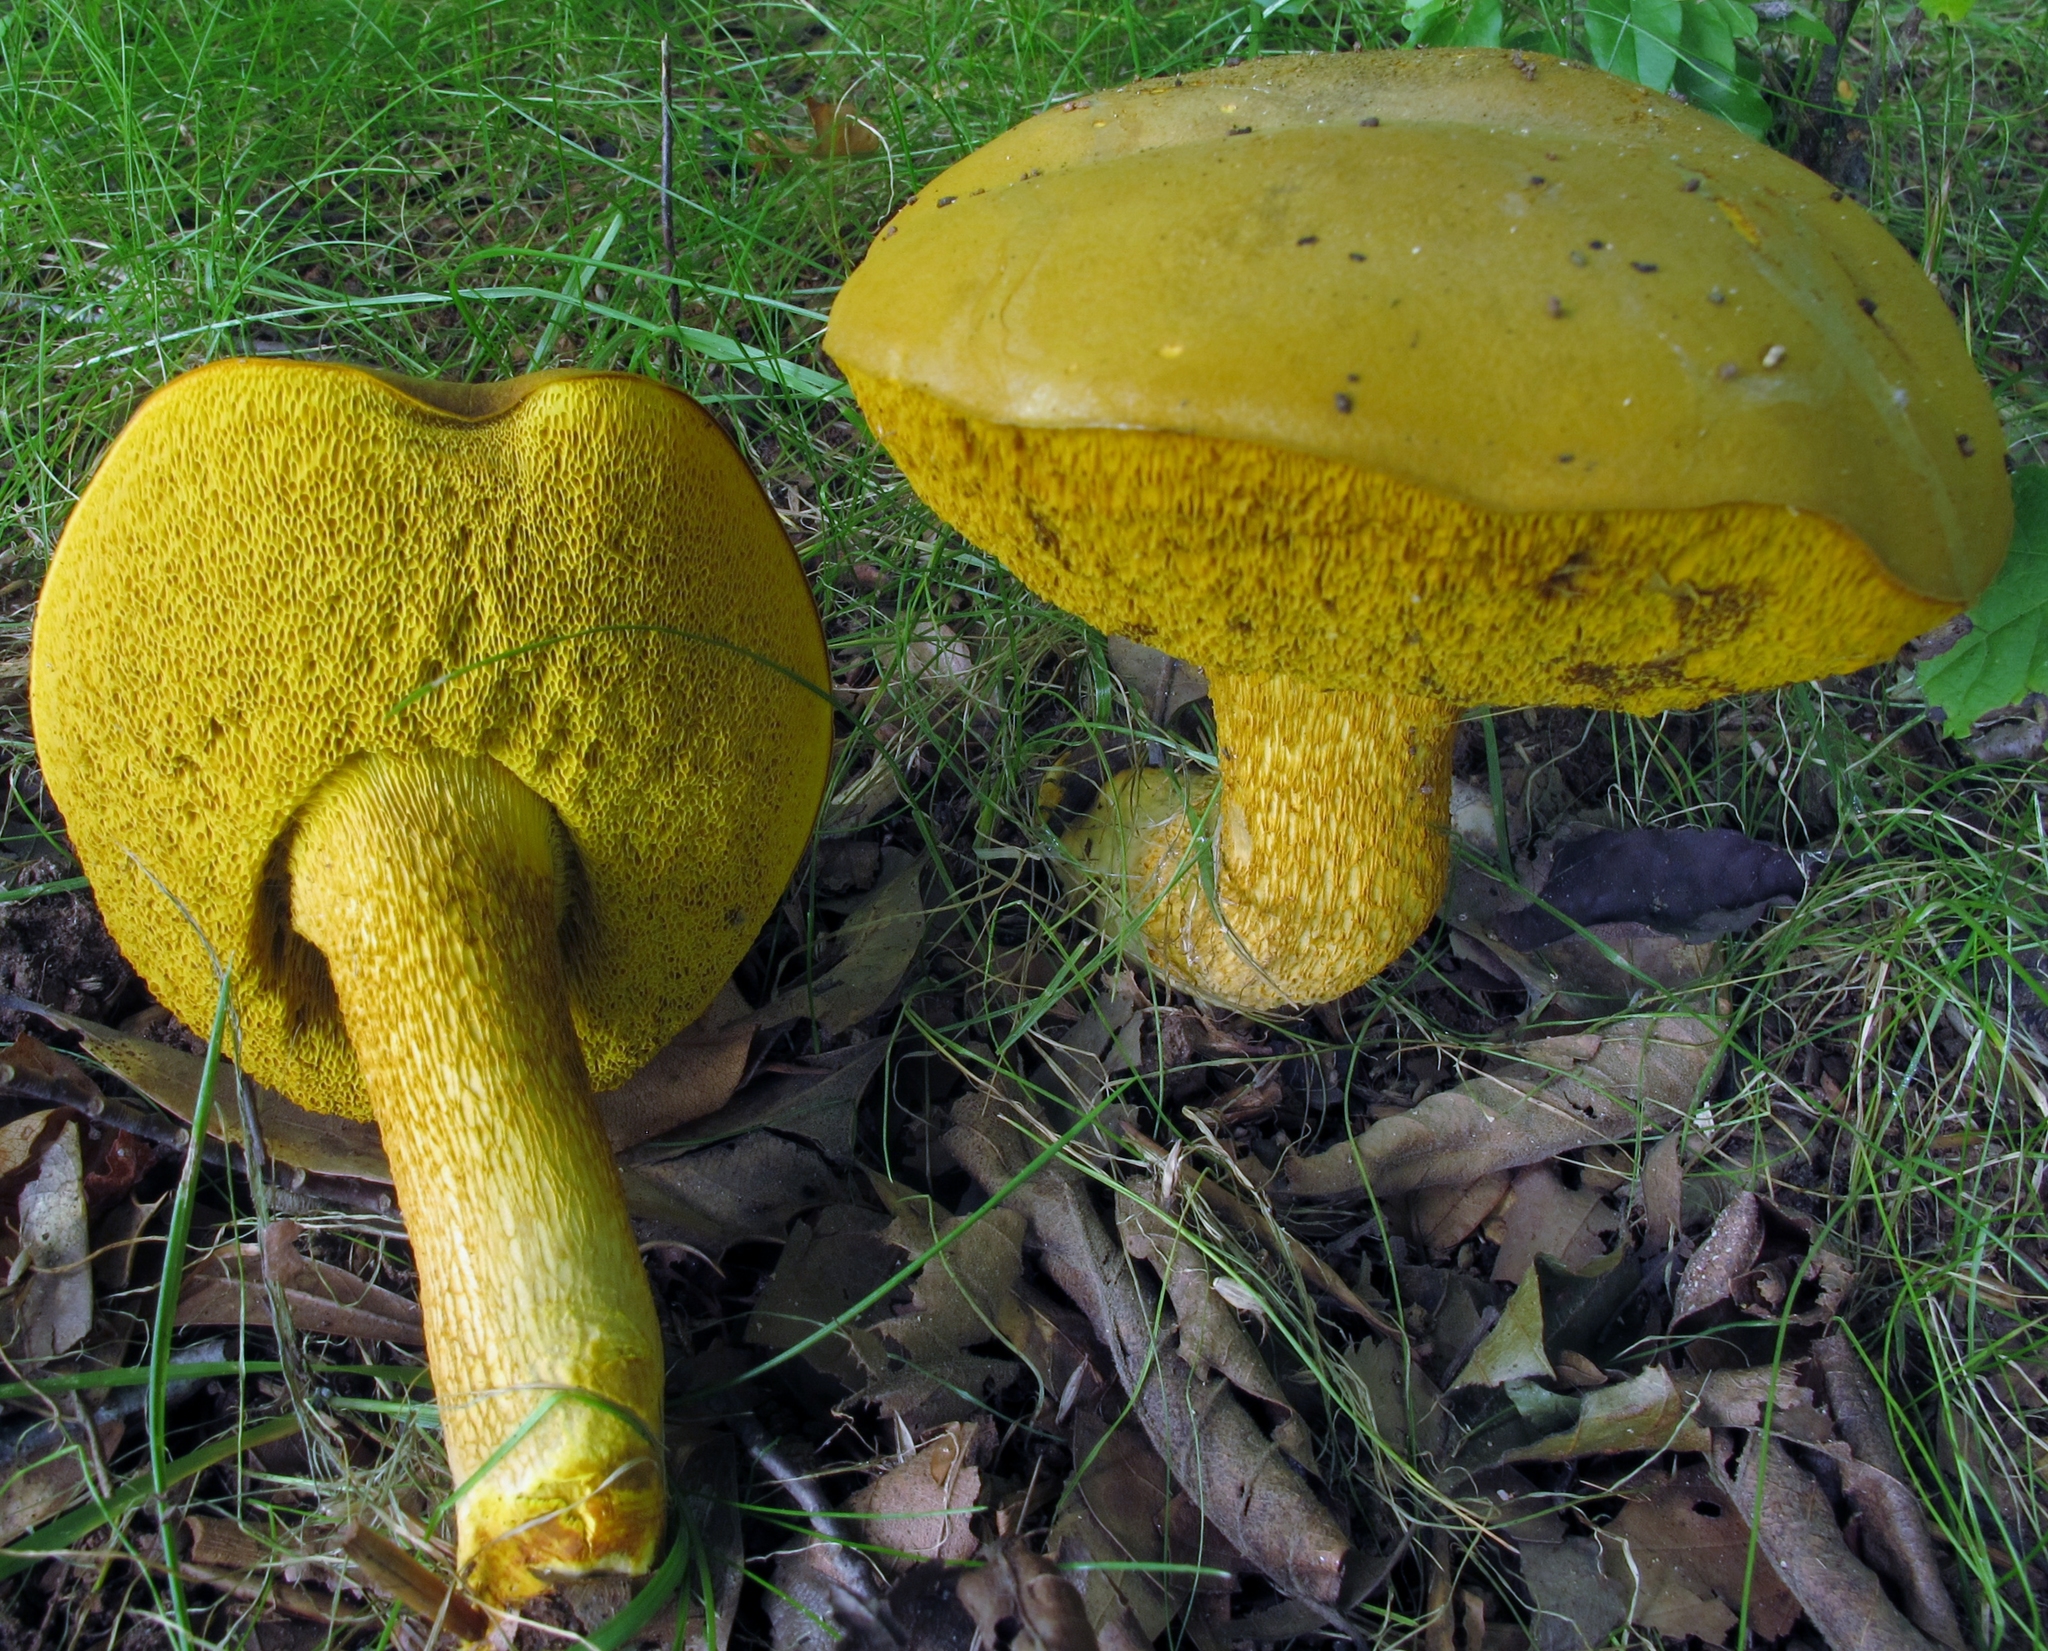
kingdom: Fungi
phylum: Basidiomycota
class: Agaricomycetes
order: Boletales
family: Boletaceae
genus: Retiboletus
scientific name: Retiboletus ornatipes
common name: Ornate-stalked bolete
